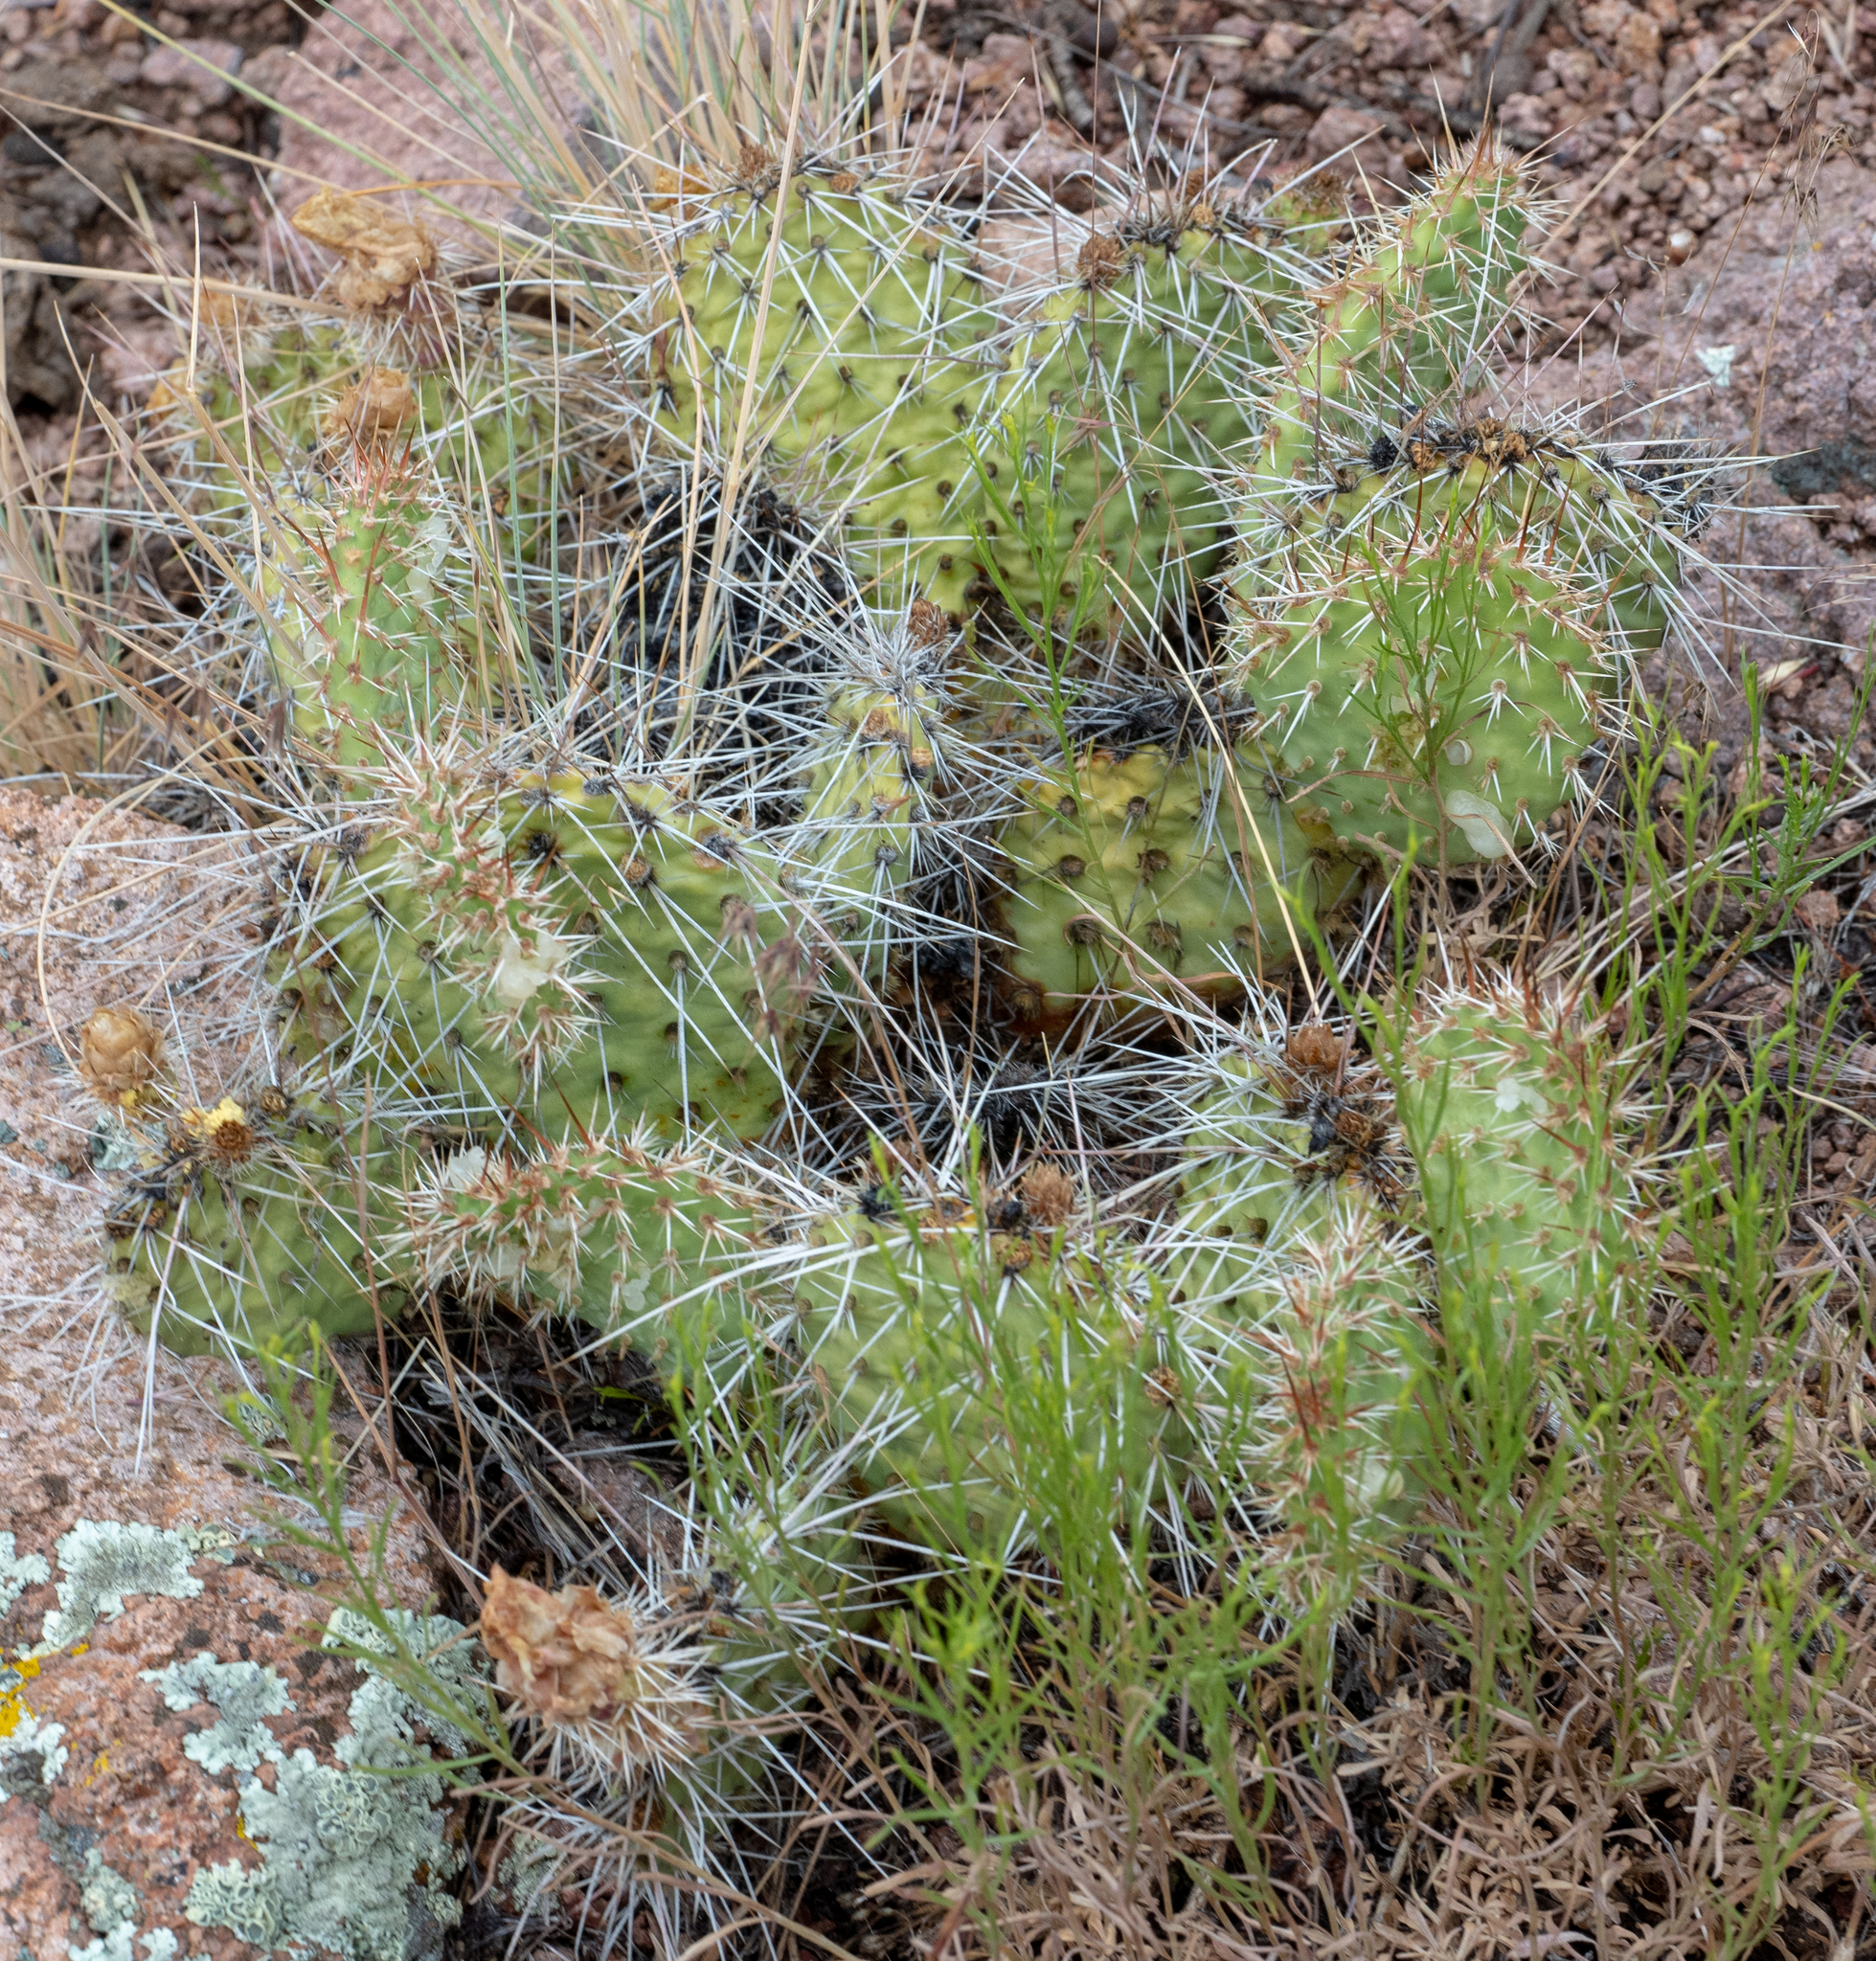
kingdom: Plantae
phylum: Tracheophyta
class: Magnoliopsida
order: Caryophyllales
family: Cactaceae
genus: Opuntia
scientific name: Opuntia polyacantha
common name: Plains prickly-pear
